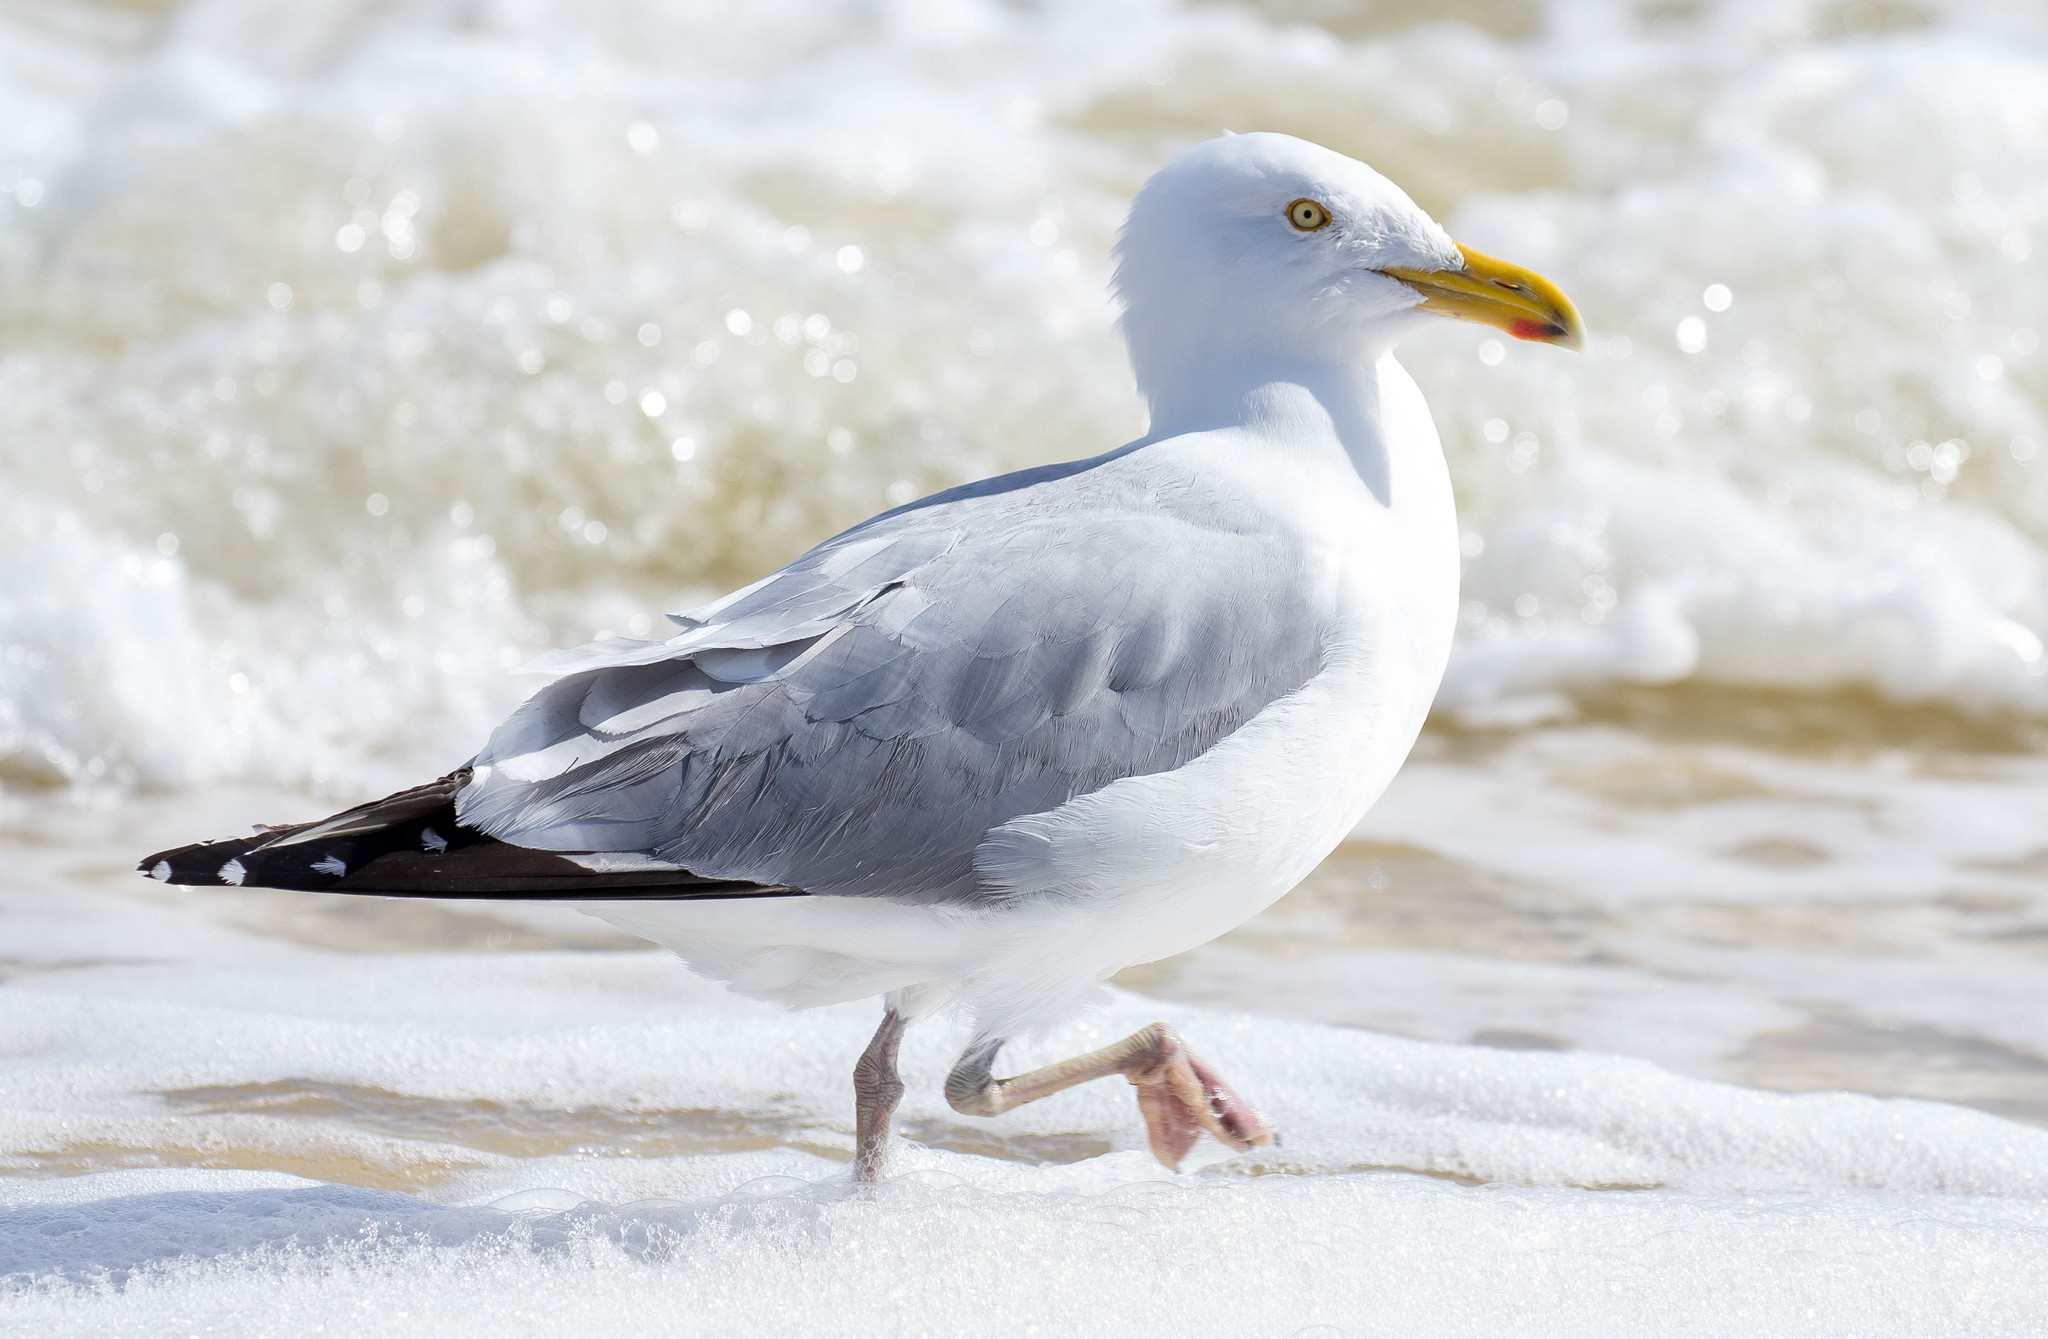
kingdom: Animalia
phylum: Chordata
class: Aves
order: Charadriiformes
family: Laridae
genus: Larus
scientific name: Larus argentatus
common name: Herring gull
